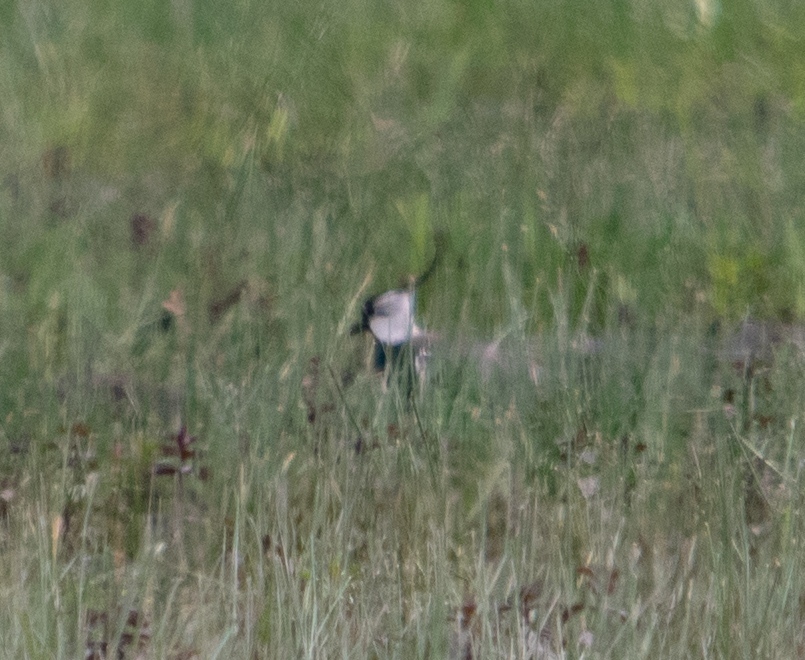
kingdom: Animalia
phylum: Chordata
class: Aves
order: Charadriiformes
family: Charadriidae
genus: Vanellus
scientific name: Vanellus vanellus
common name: Northern lapwing
